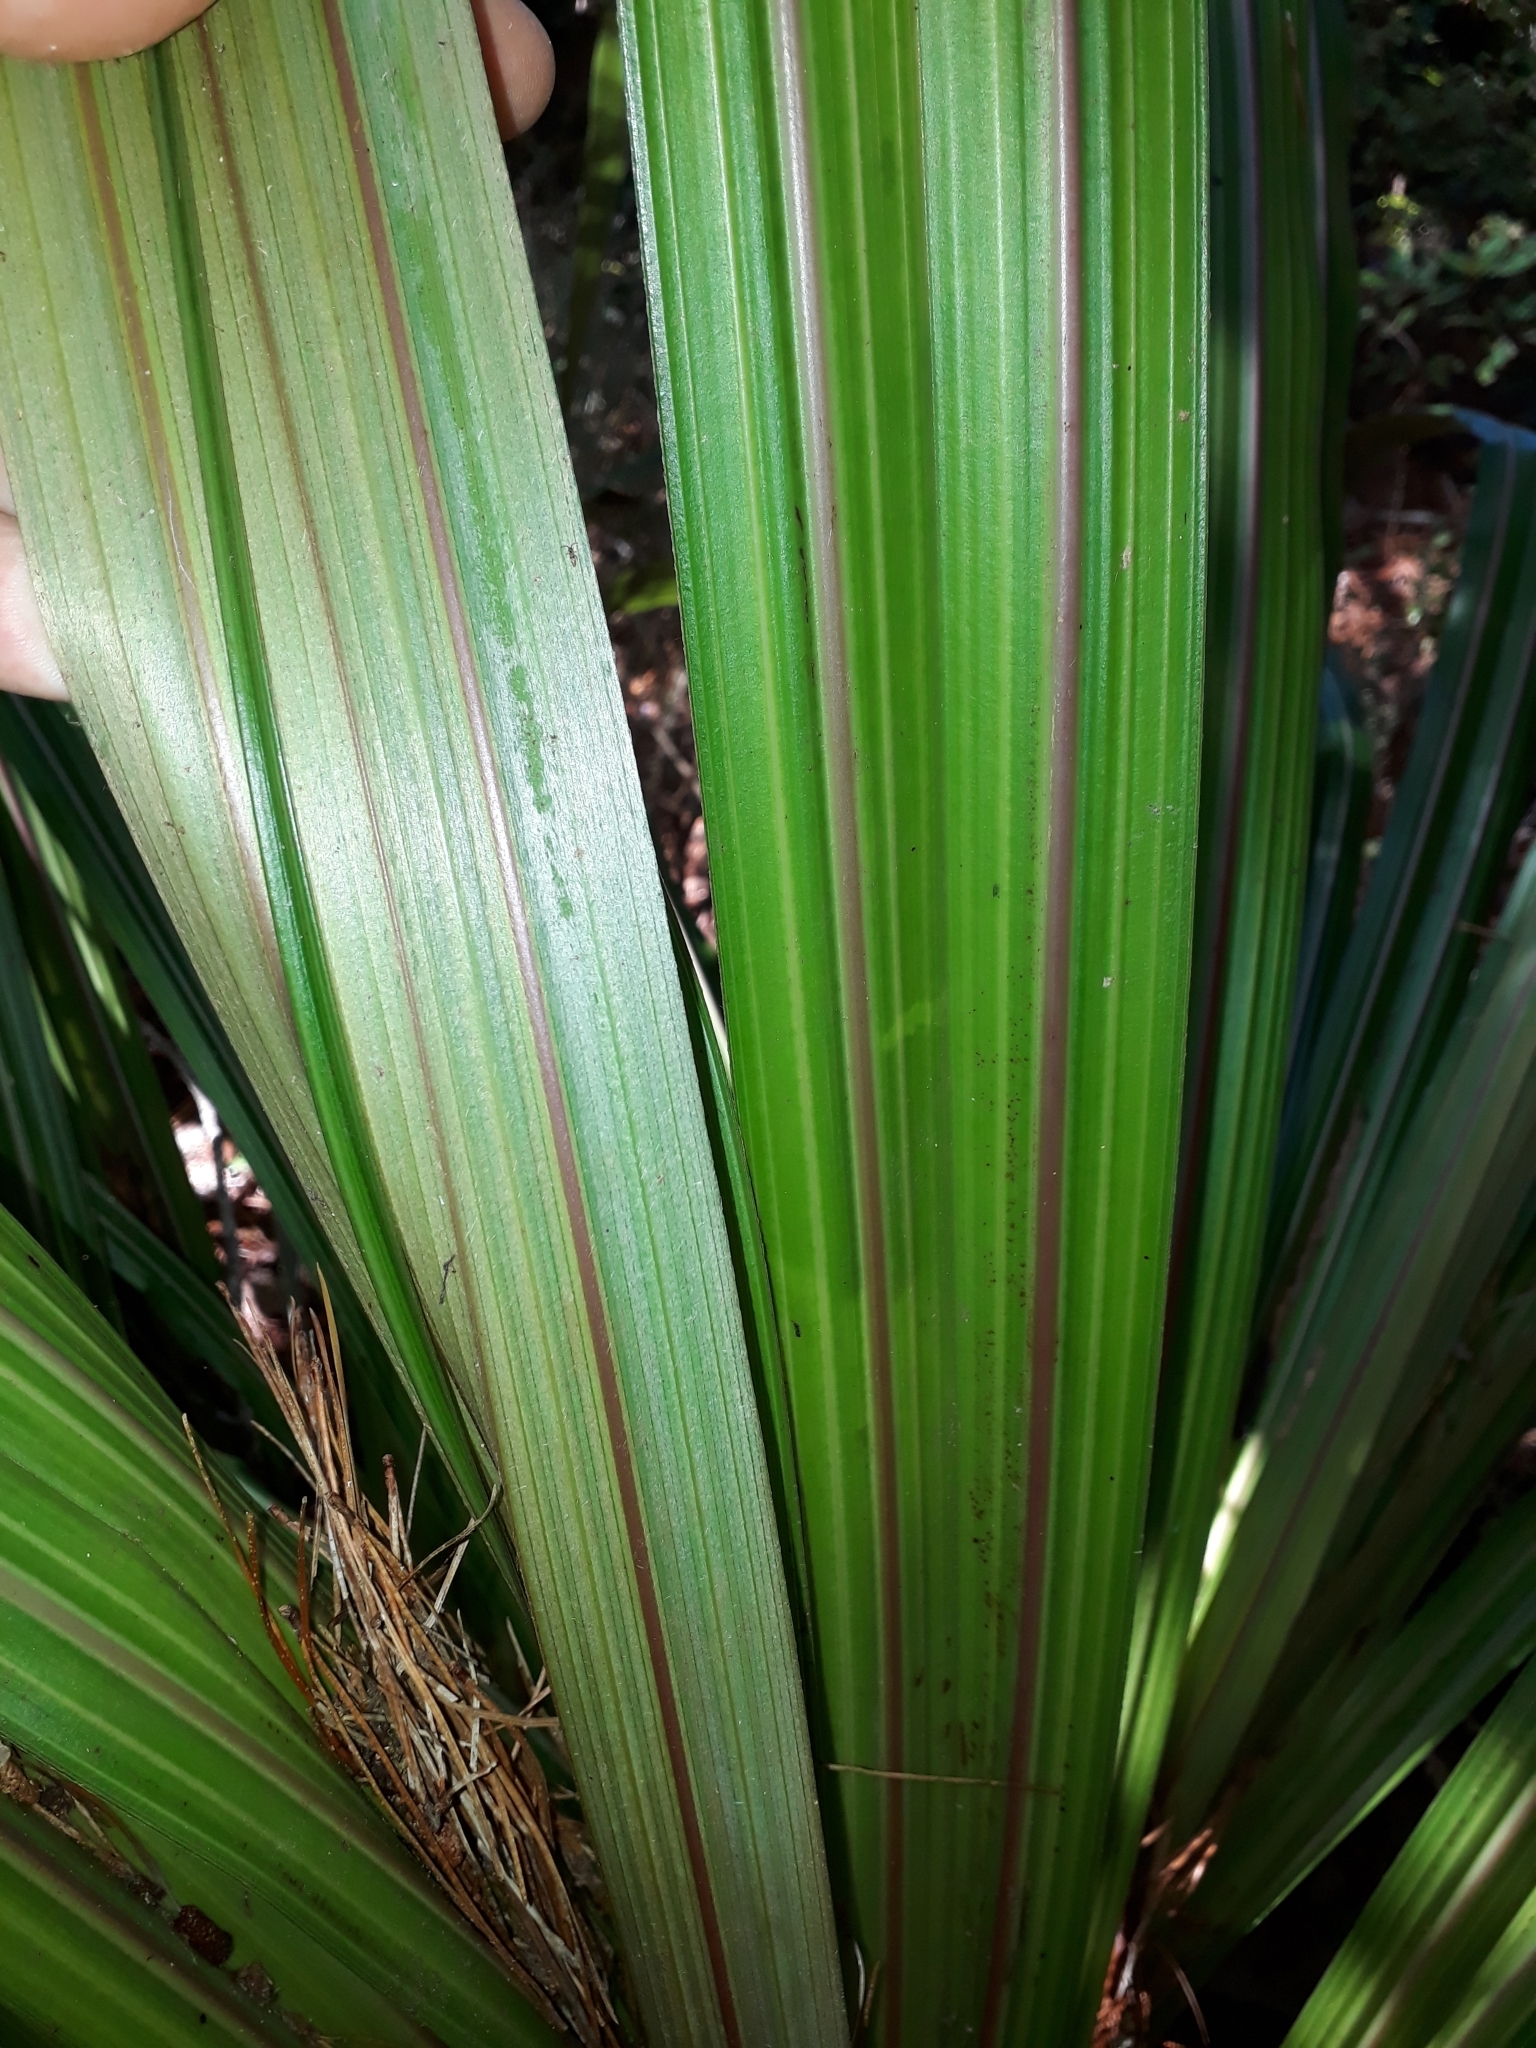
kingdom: Plantae
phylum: Tracheophyta
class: Liliopsida
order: Asparagales
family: Asteliaceae
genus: Astelia
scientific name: Astelia fragrans
